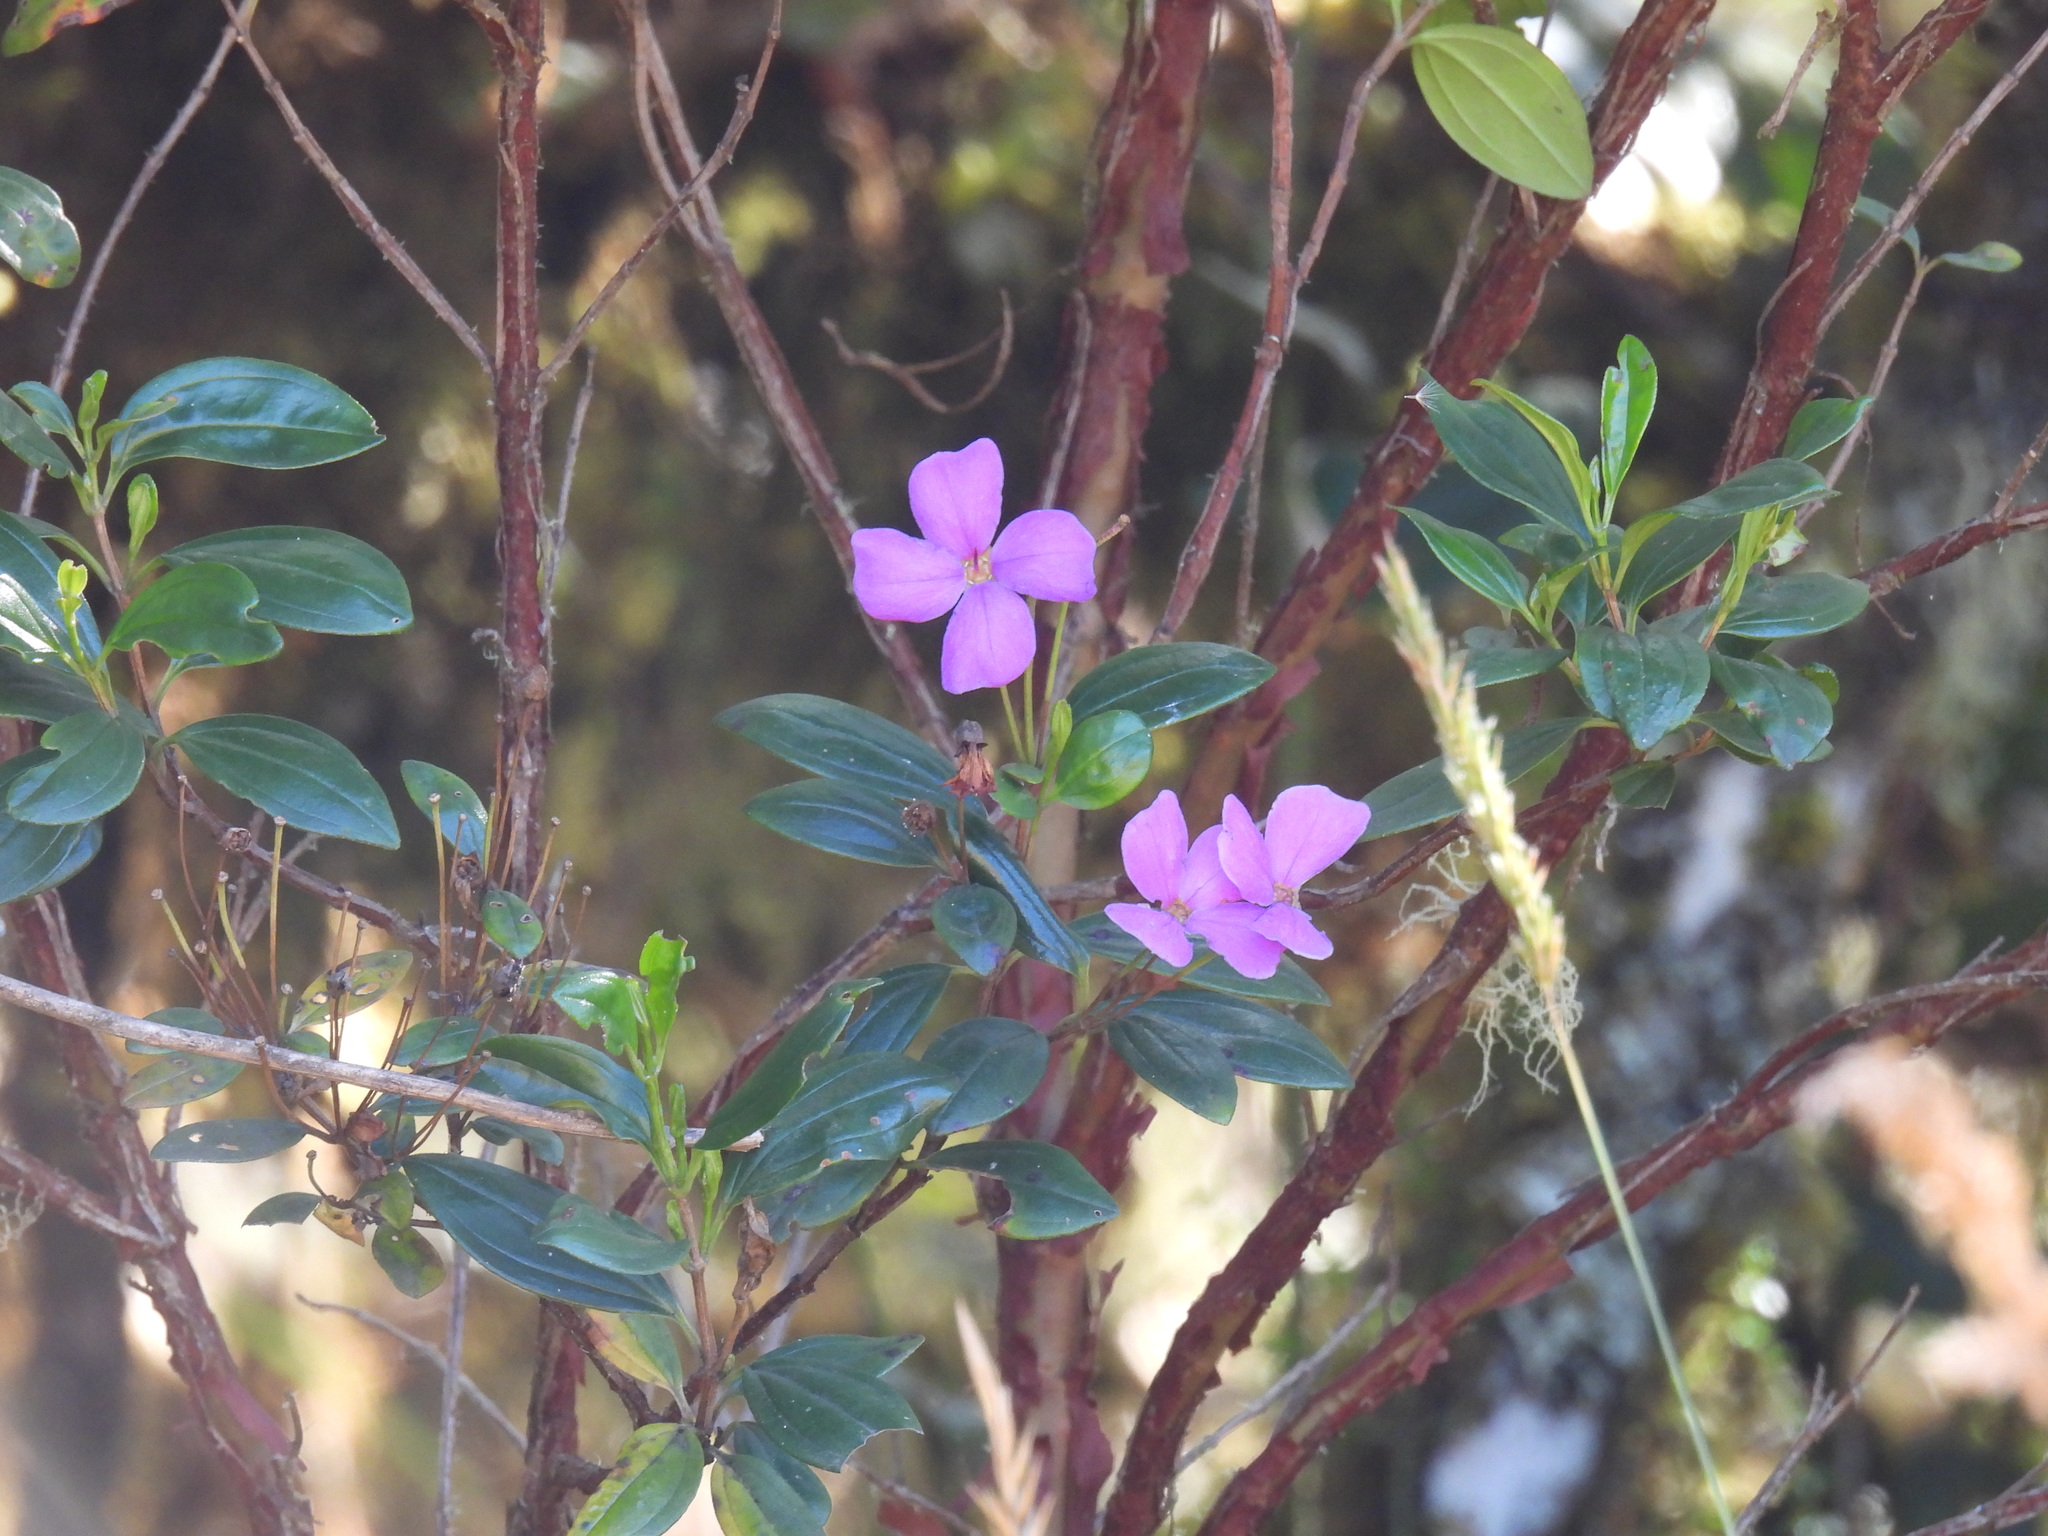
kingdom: Plantae
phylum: Tracheophyta
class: Magnoliopsida
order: Myrtales
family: Melastomataceae
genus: Bucquetia
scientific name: Bucquetia glutinosa
